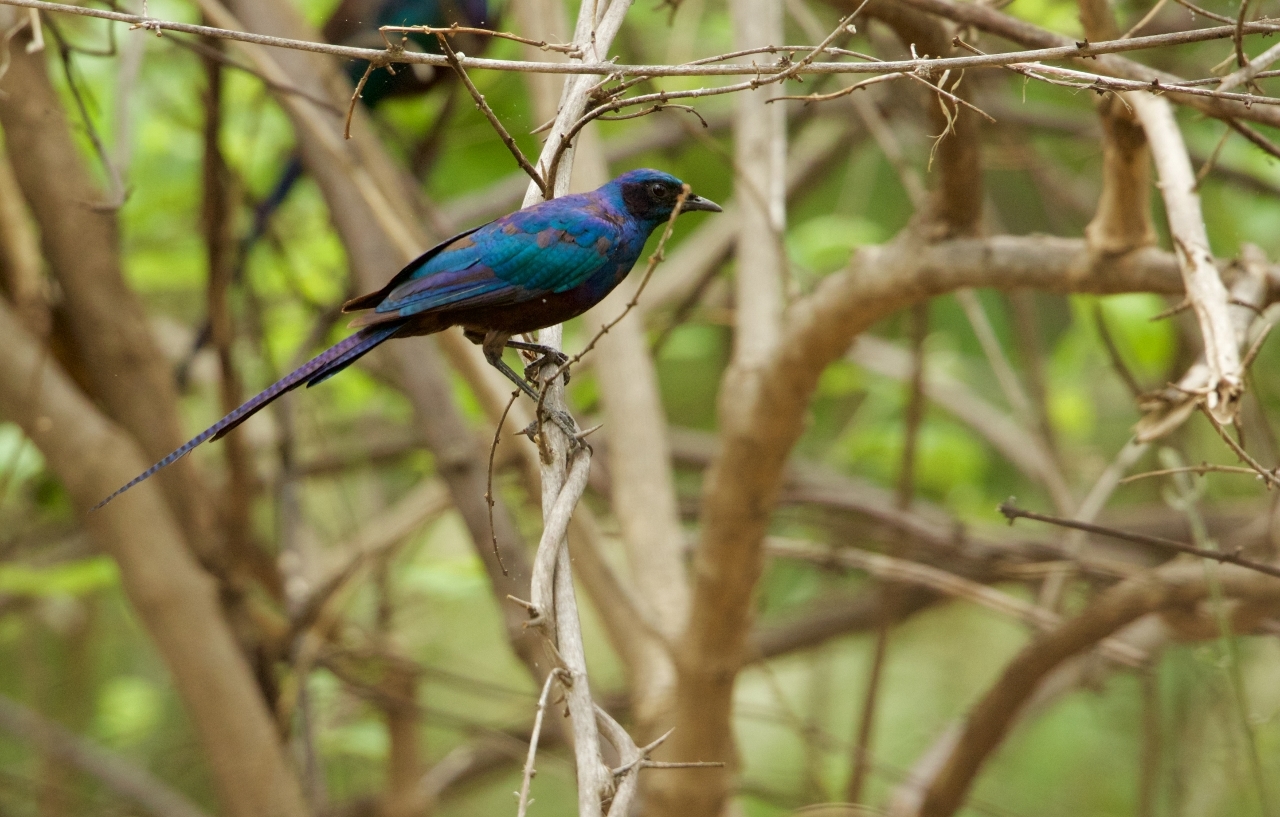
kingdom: Animalia
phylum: Chordata
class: Aves
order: Passeriformes
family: Sturnidae
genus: Lamprotornis
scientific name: Lamprotornis mevesii
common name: Meves's starling
